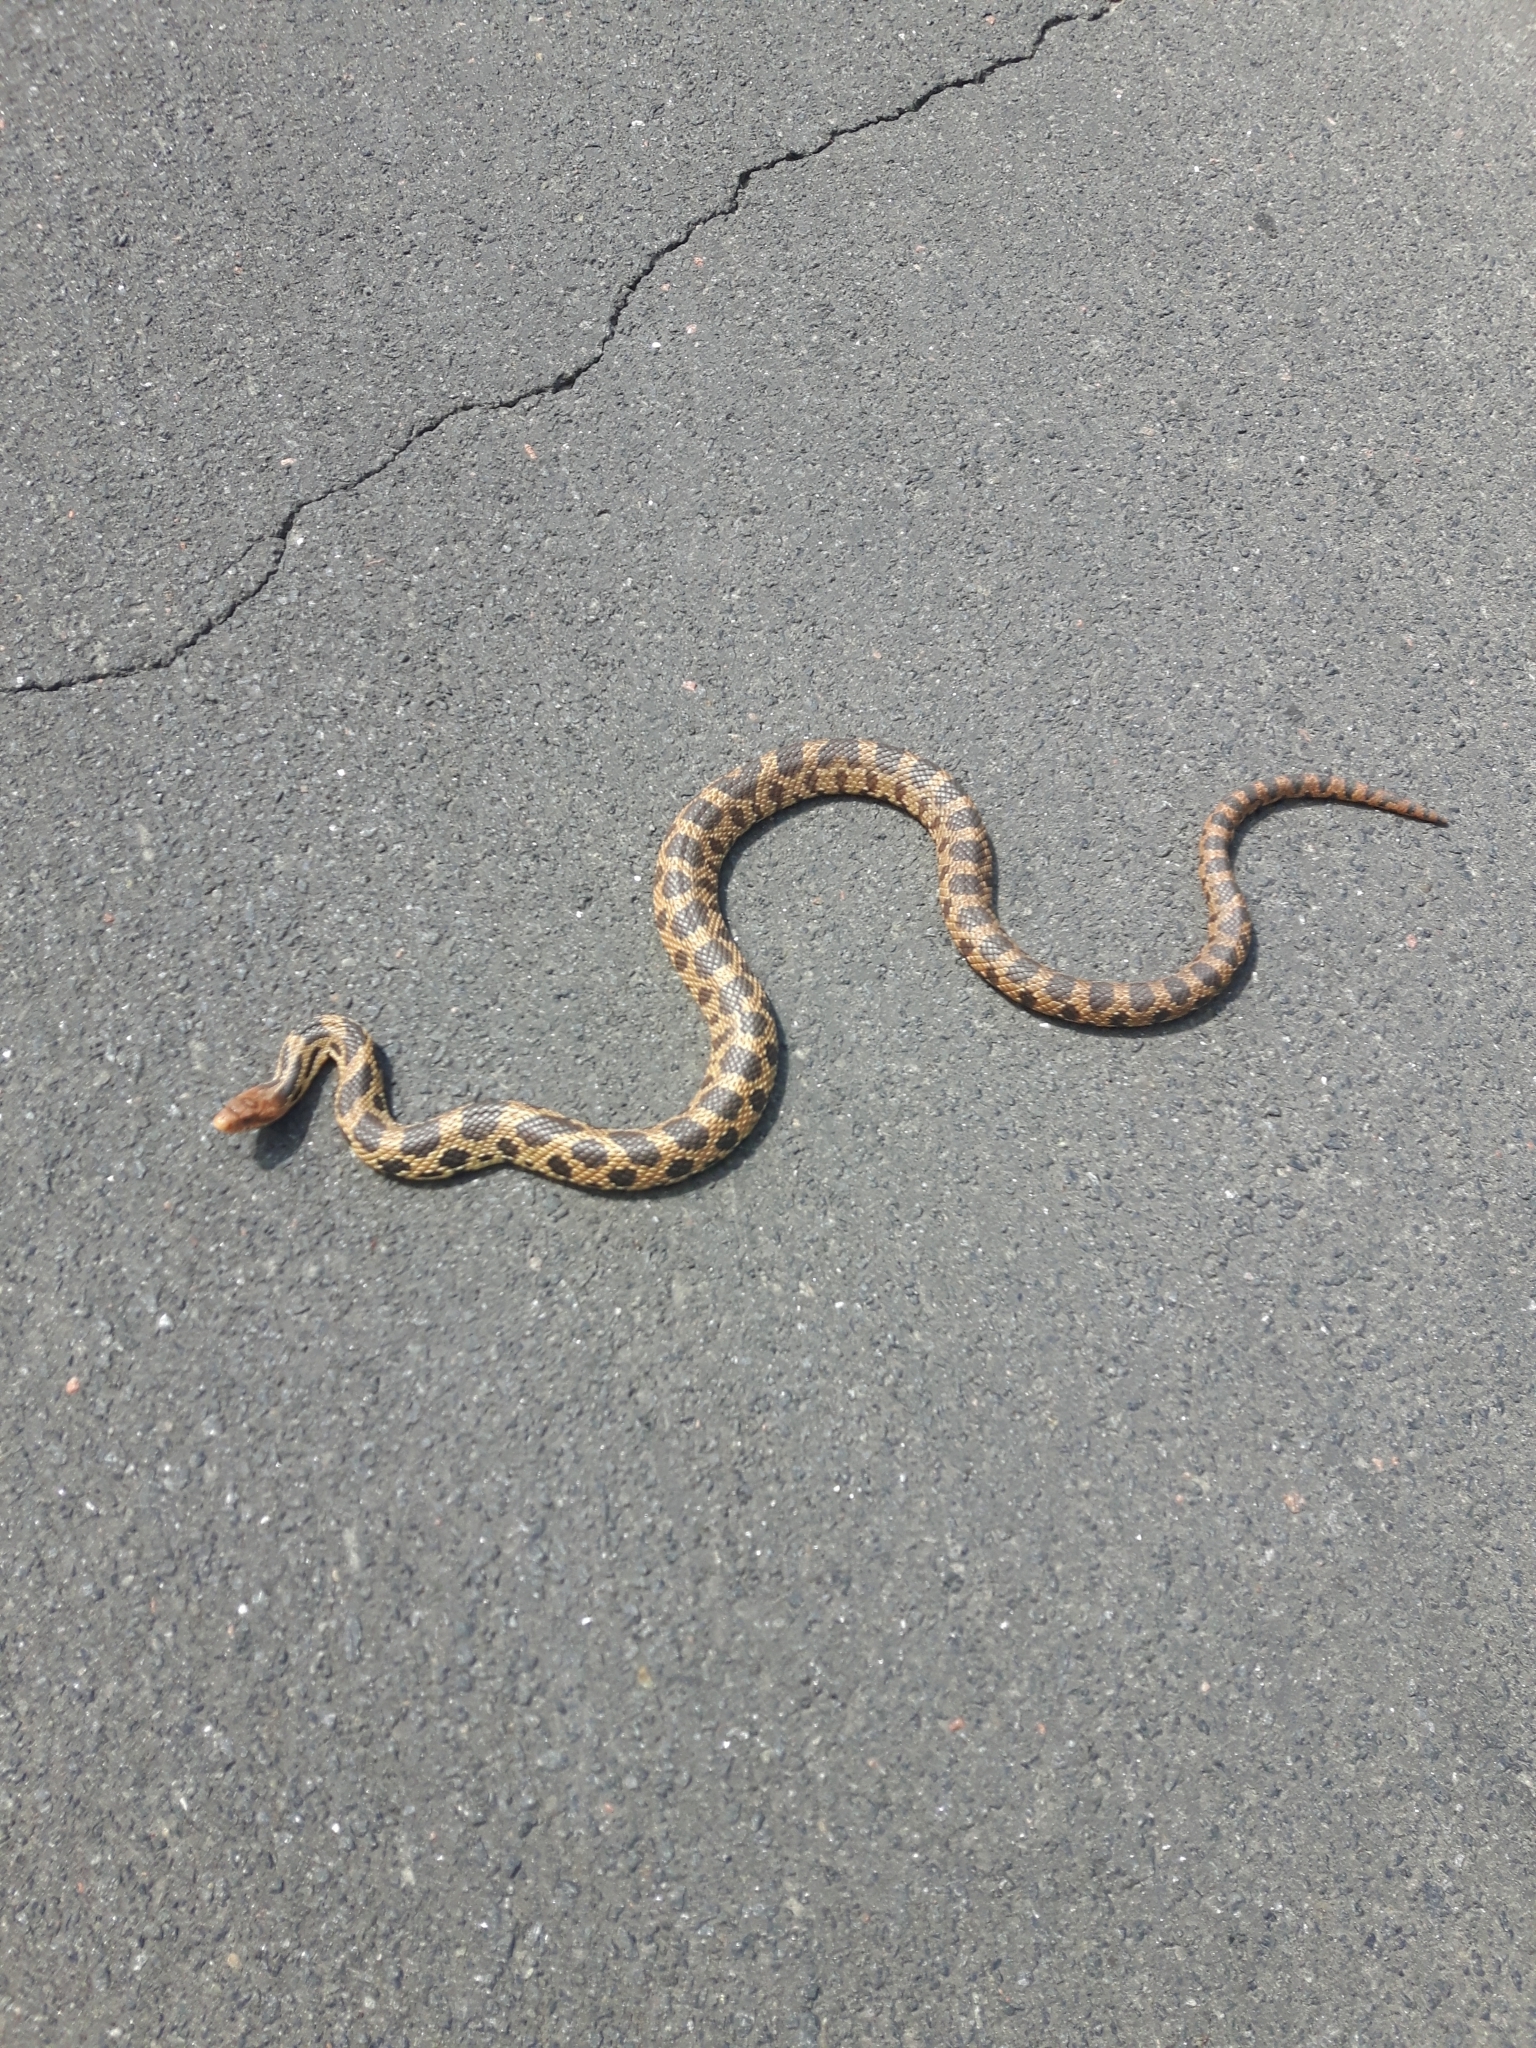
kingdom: Animalia
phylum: Chordata
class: Squamata
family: Colubridae
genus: Pantherophis
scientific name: Pantherophis vulpinus
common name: Eastern fox snake
